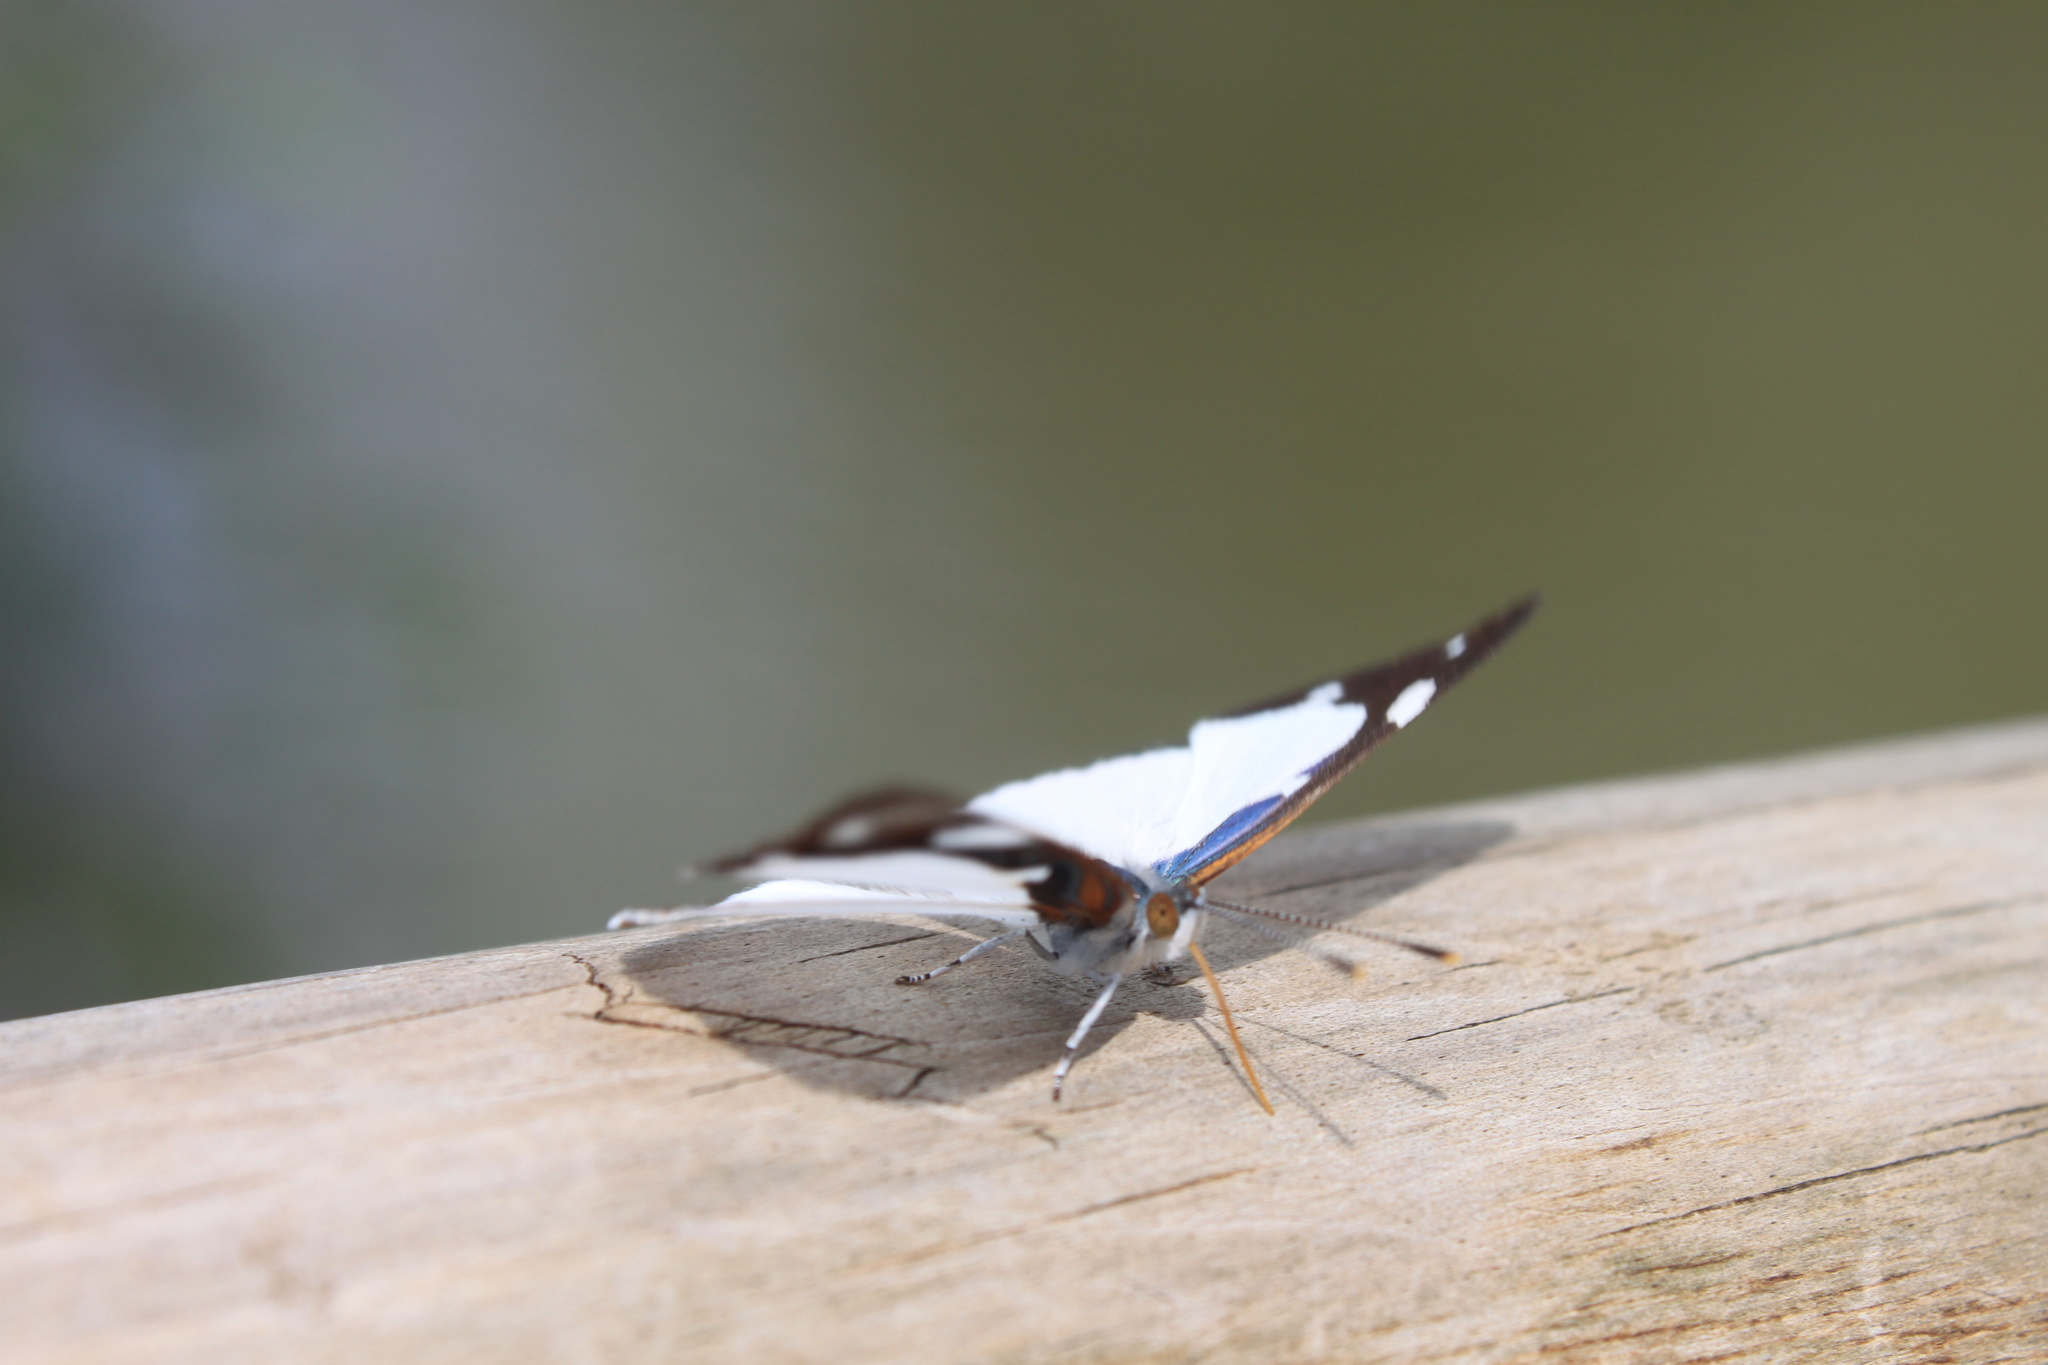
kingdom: Animalia
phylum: Arthropoda
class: Insecta
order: Lepidoptera
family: Nymphalidae
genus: Dynamine
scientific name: Dynamine coenus
